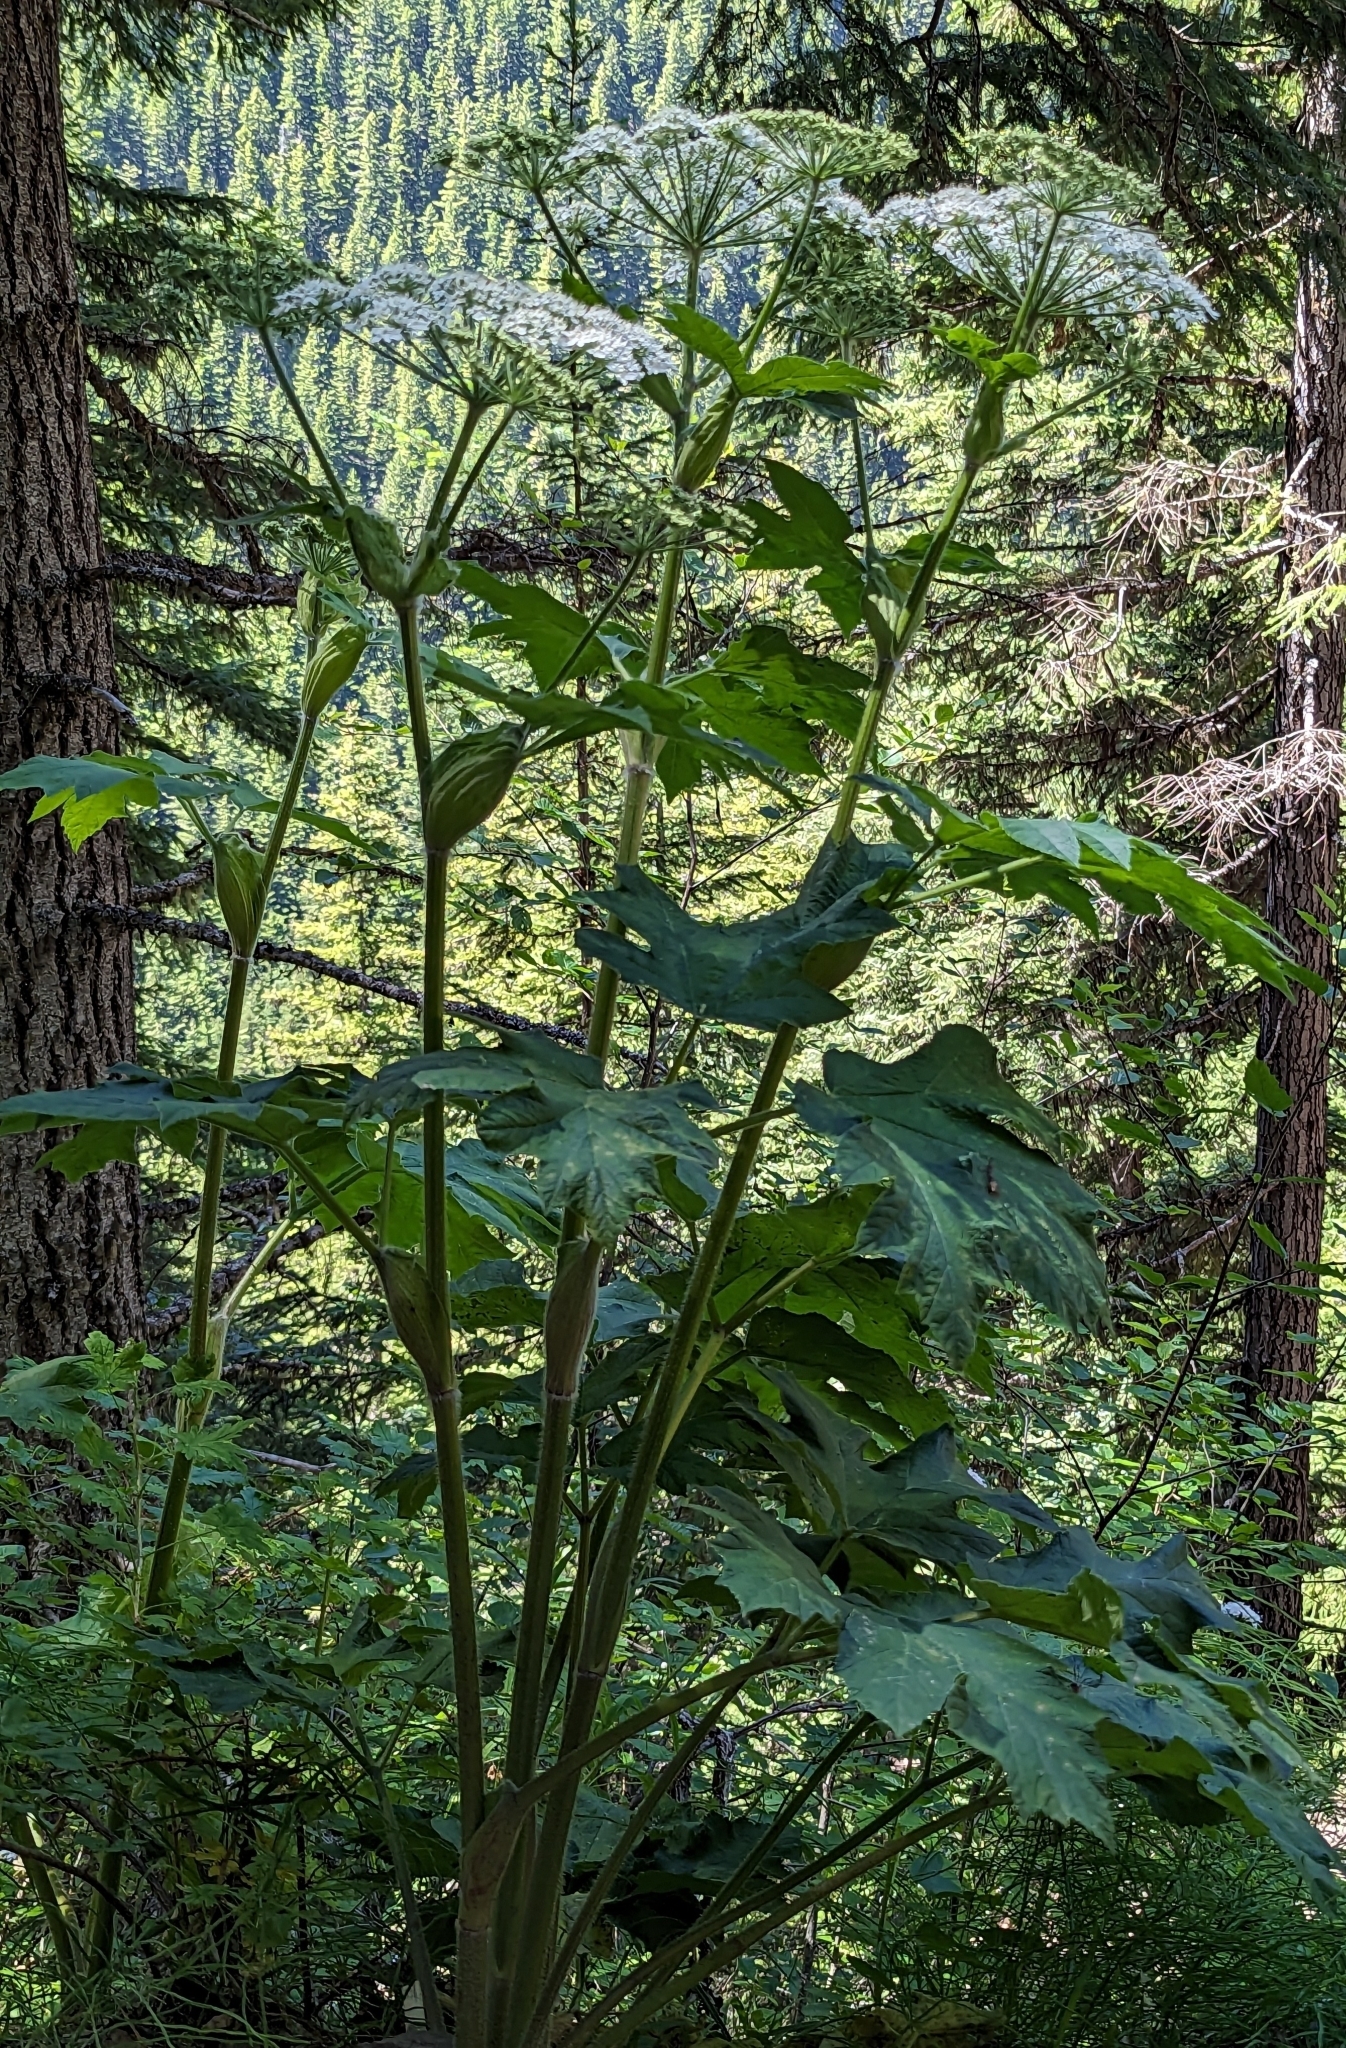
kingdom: Plantae
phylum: Tracheophyta
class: Magnoliopsida
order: Apiales
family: Apiaceae
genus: Heracleum
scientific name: Heracleum maximum
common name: American cow parsnip
